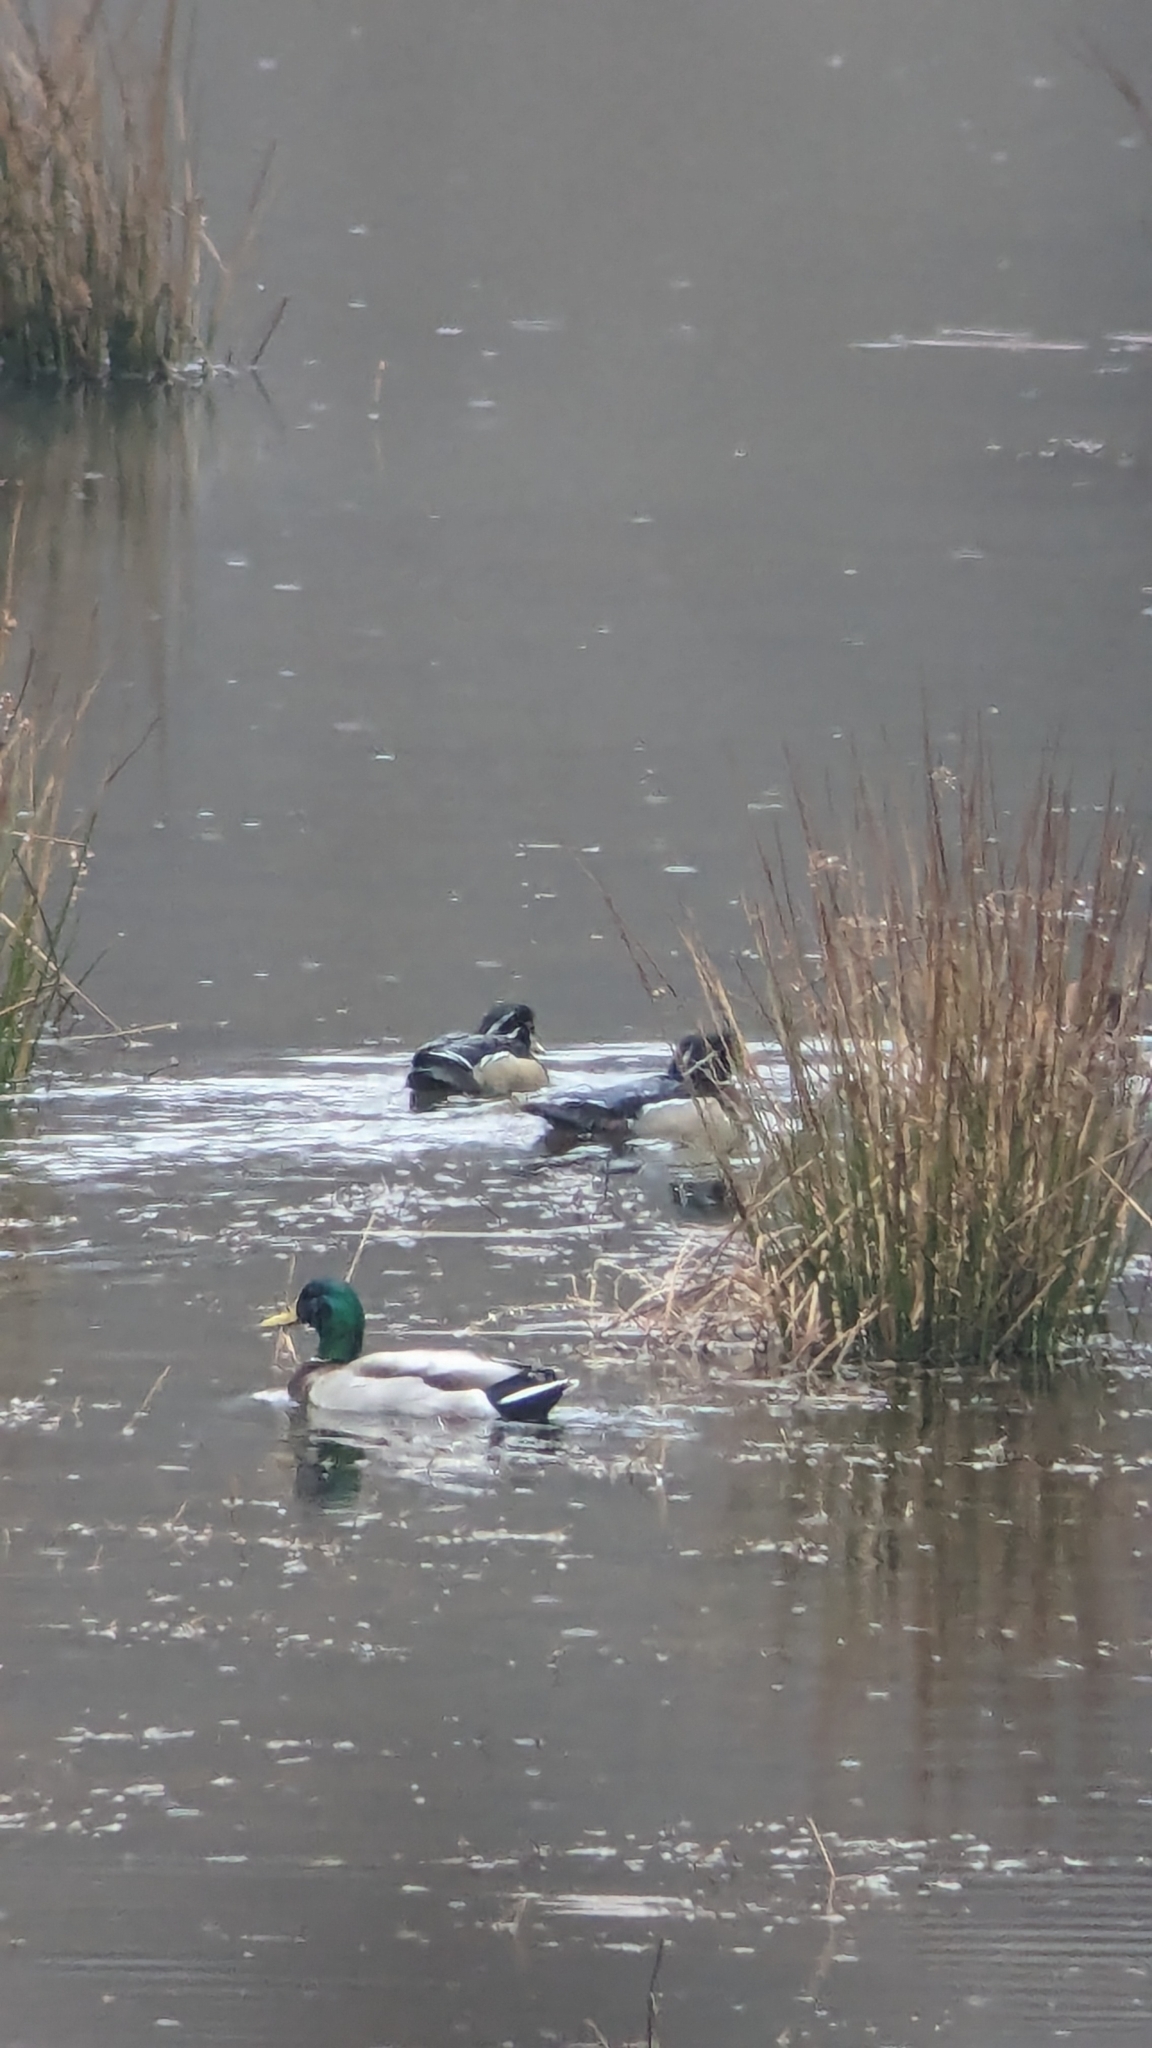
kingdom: Animalia
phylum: Chordata
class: Aves
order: Anseriformes
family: Anatidae
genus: Anas
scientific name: Anas platyrhynchos
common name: Mallard
